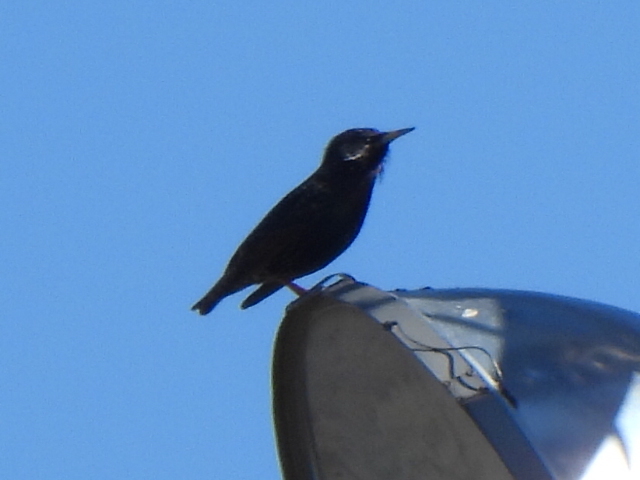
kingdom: Animalia
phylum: Chordata
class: Aves
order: Passeriformes
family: Sturnidae
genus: Sturnus
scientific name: Sturnus vulgaris
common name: Common starling
